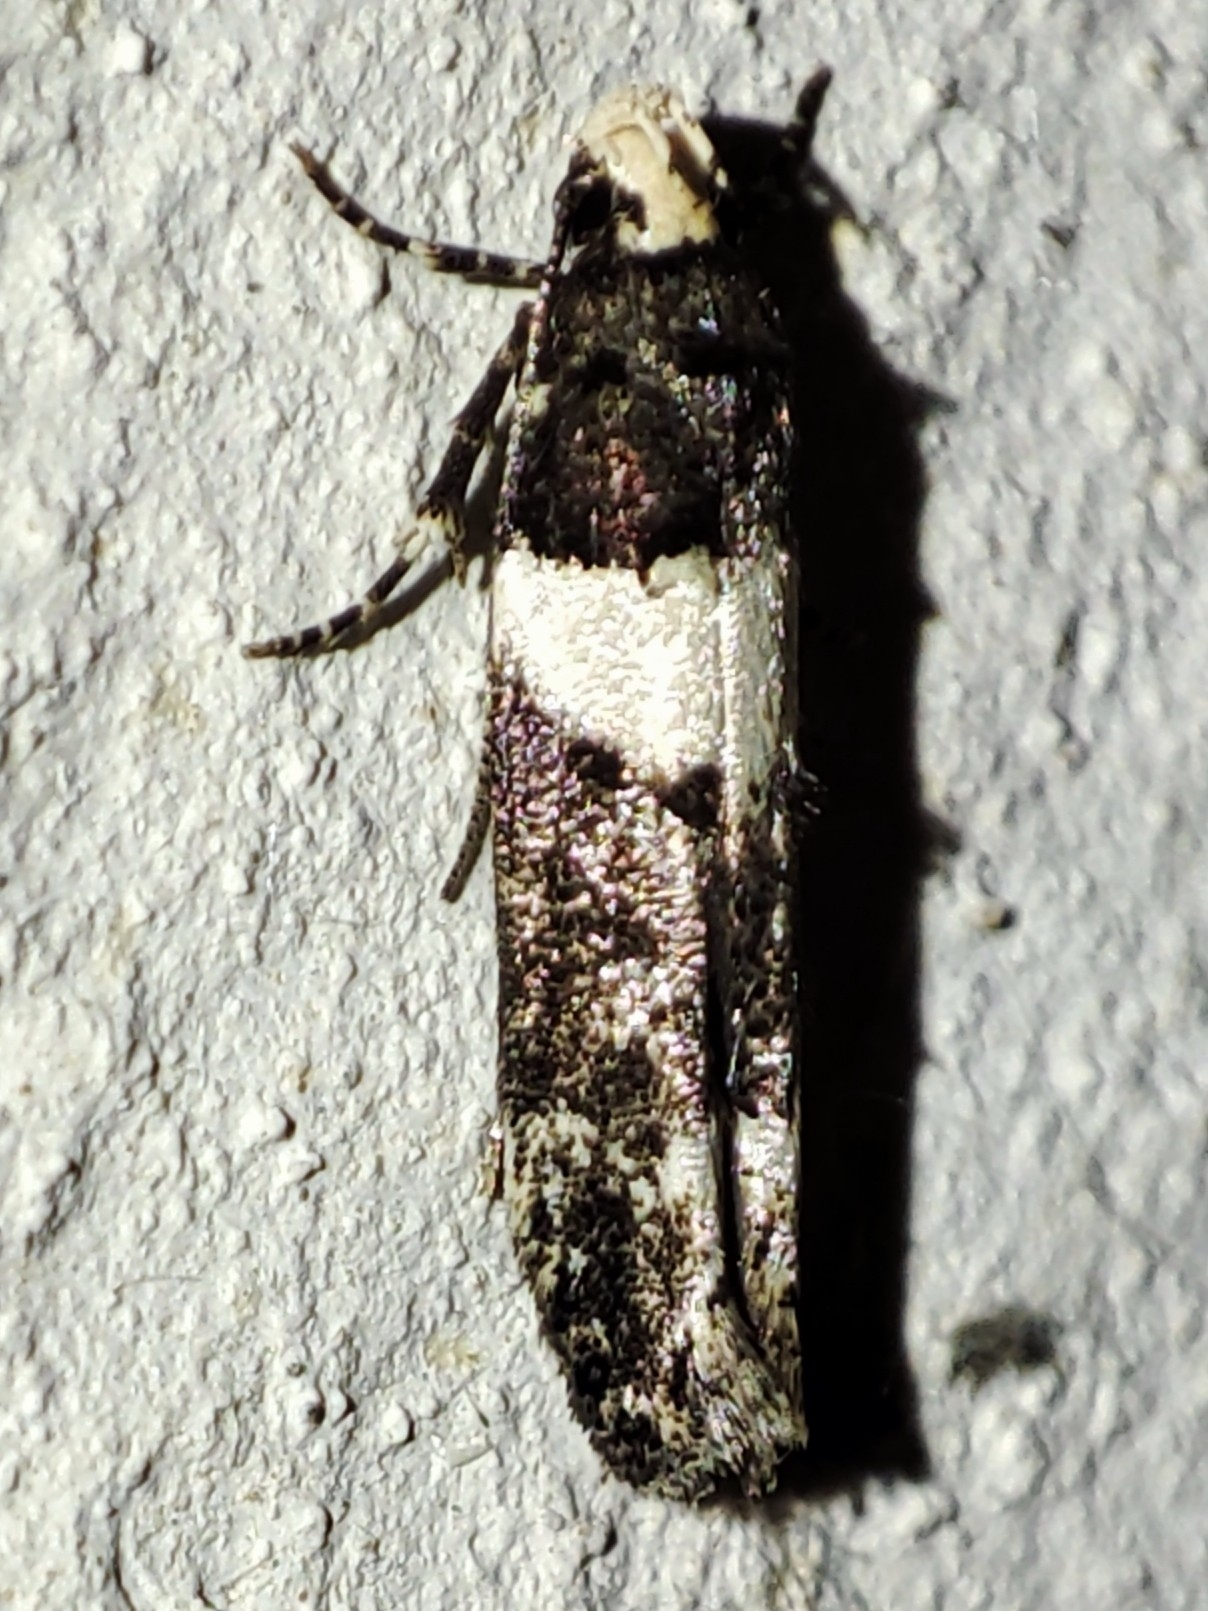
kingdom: Animalia
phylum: Arthropoda
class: Insecta
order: Lepidoptera
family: Gelechiidae
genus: Recurvaria
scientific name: Recurvaria leucatella
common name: White-barred groundling
